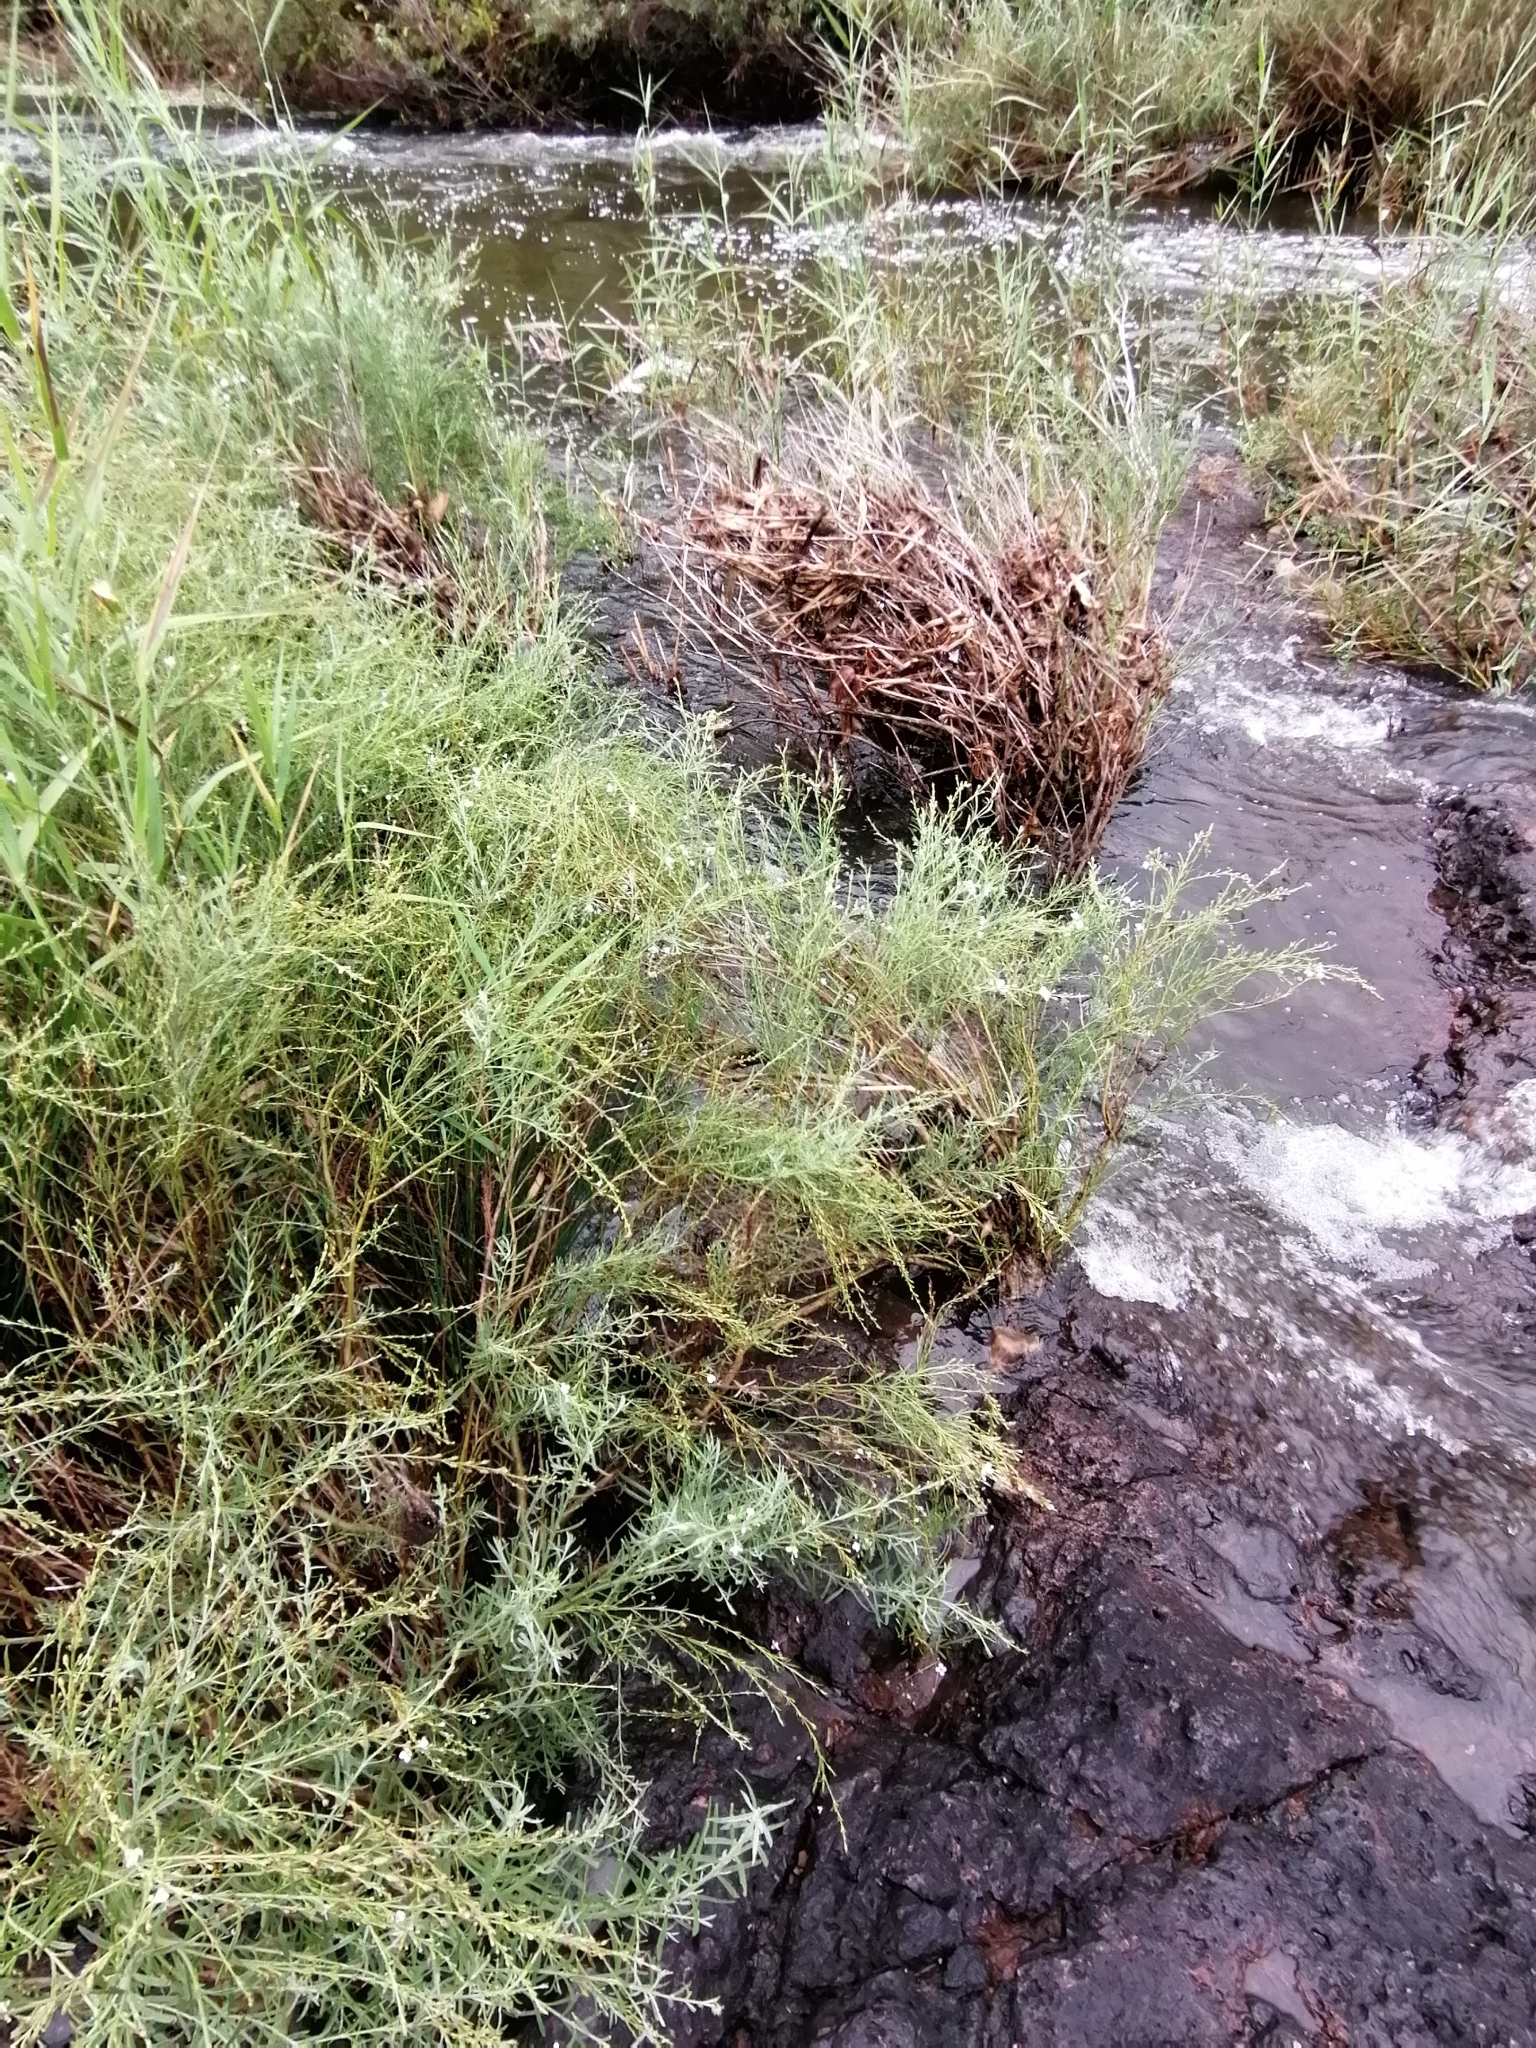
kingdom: Plantae
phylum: Tracheophyta
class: Magnoliopsida
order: Lamiales
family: Scrophulariaceae
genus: Buddleja
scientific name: Buddleja virgata
